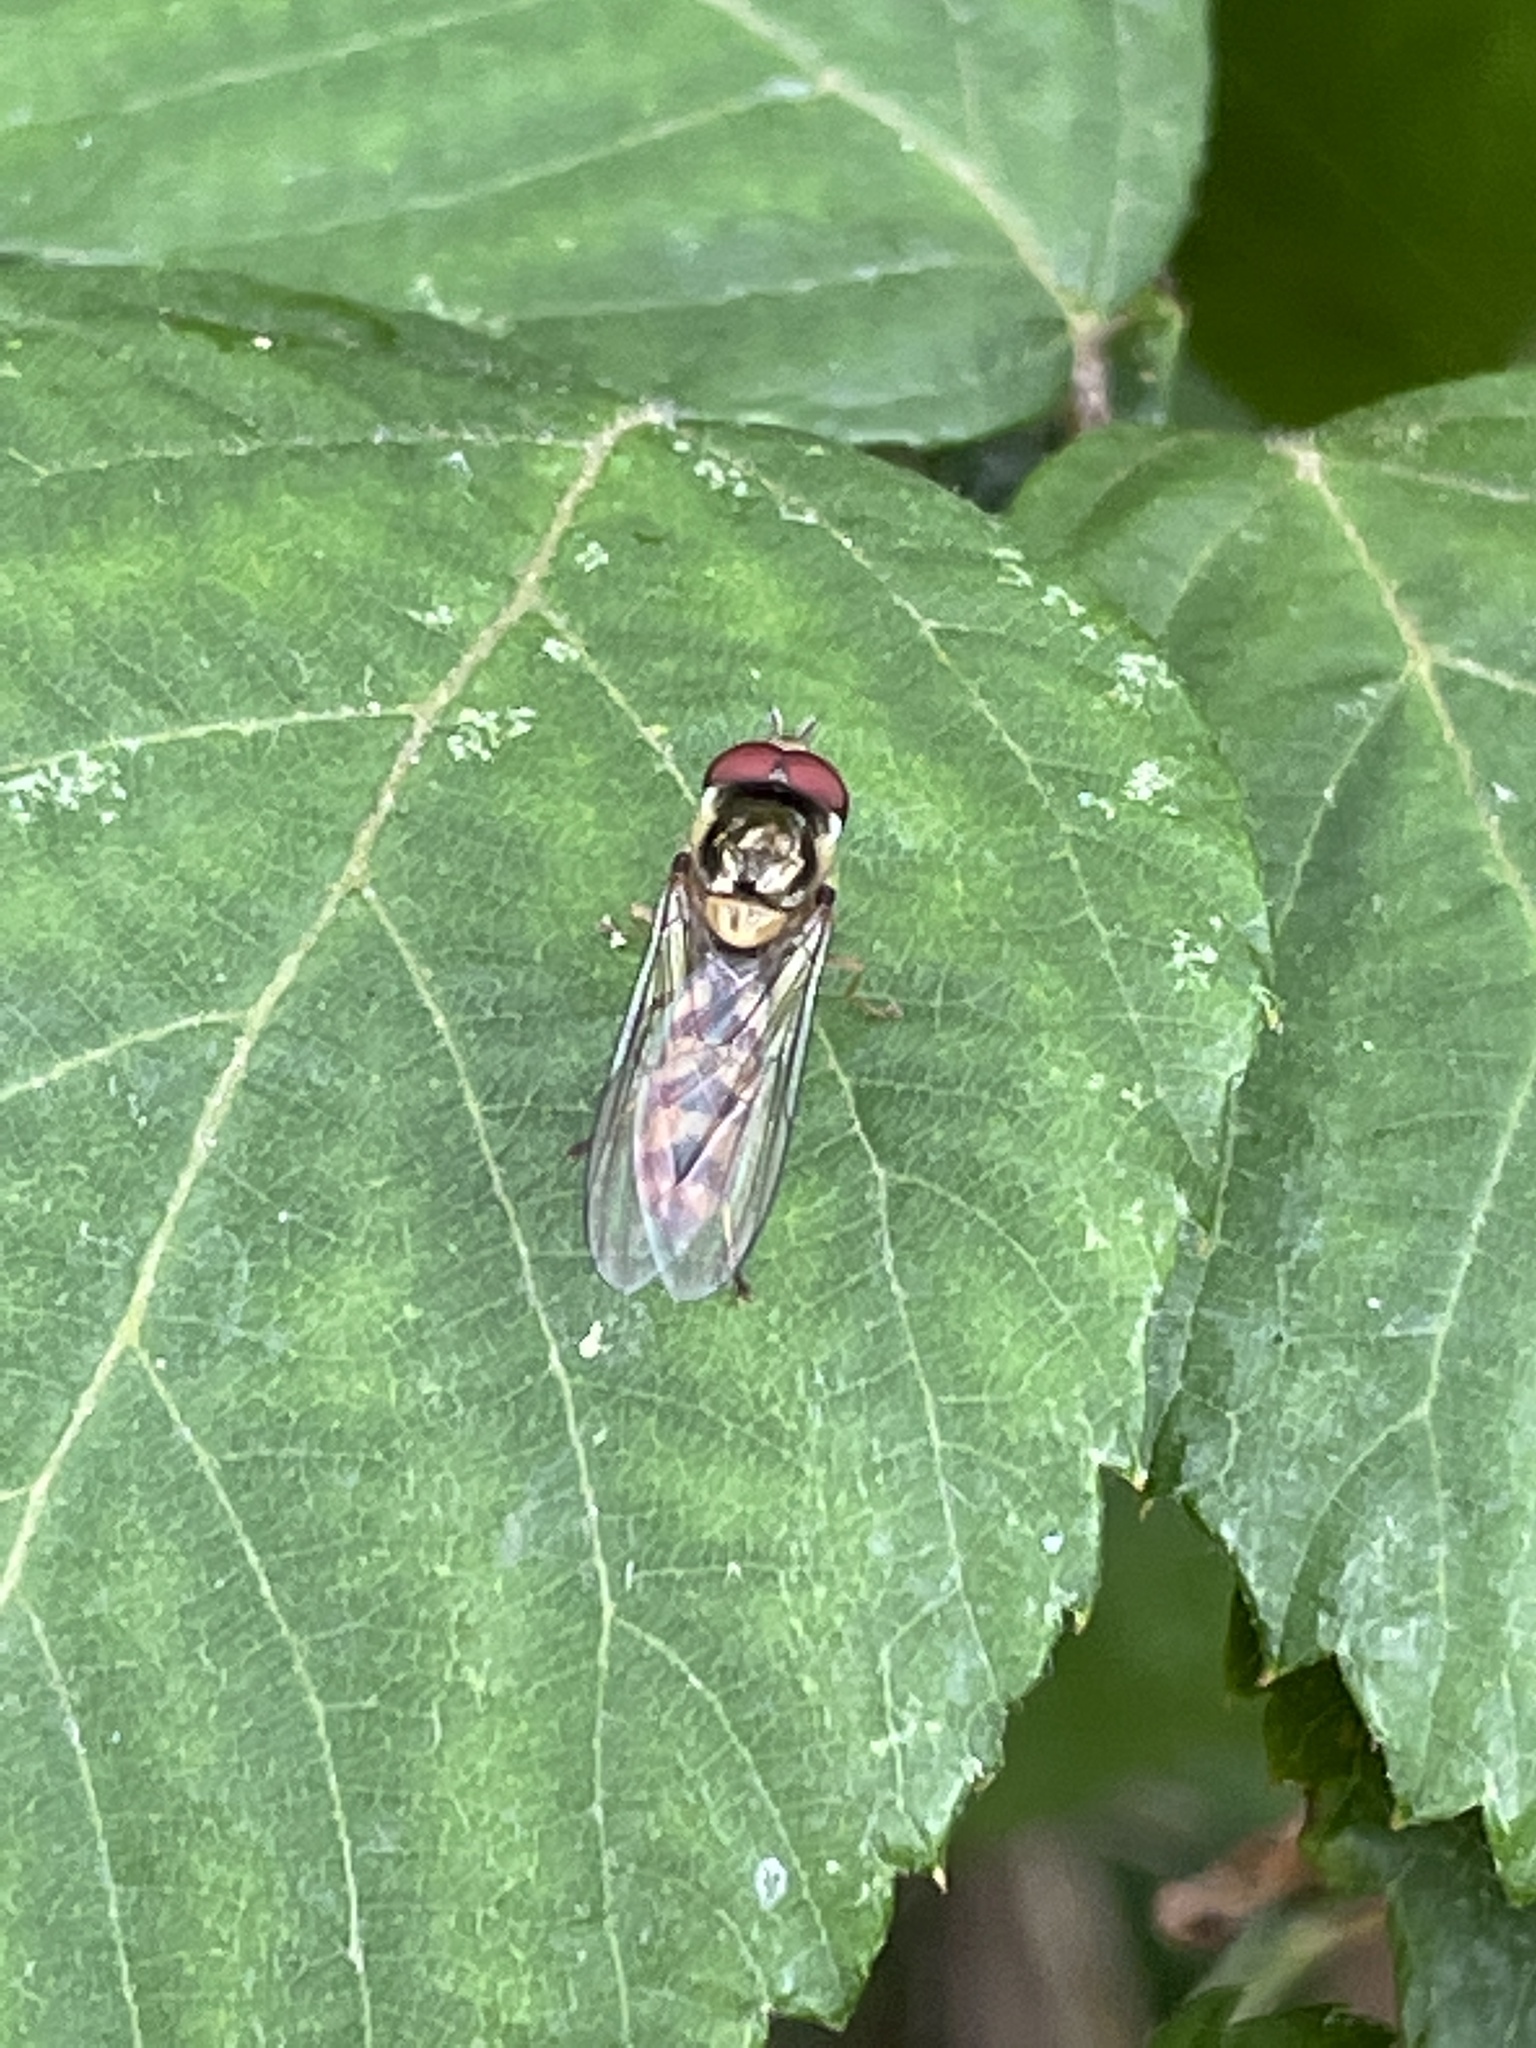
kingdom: Animalia
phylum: Arthropoda
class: Insecta
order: Diptera
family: Syrphidae
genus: Meliscaeva
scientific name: Meliscaeva auricollis
